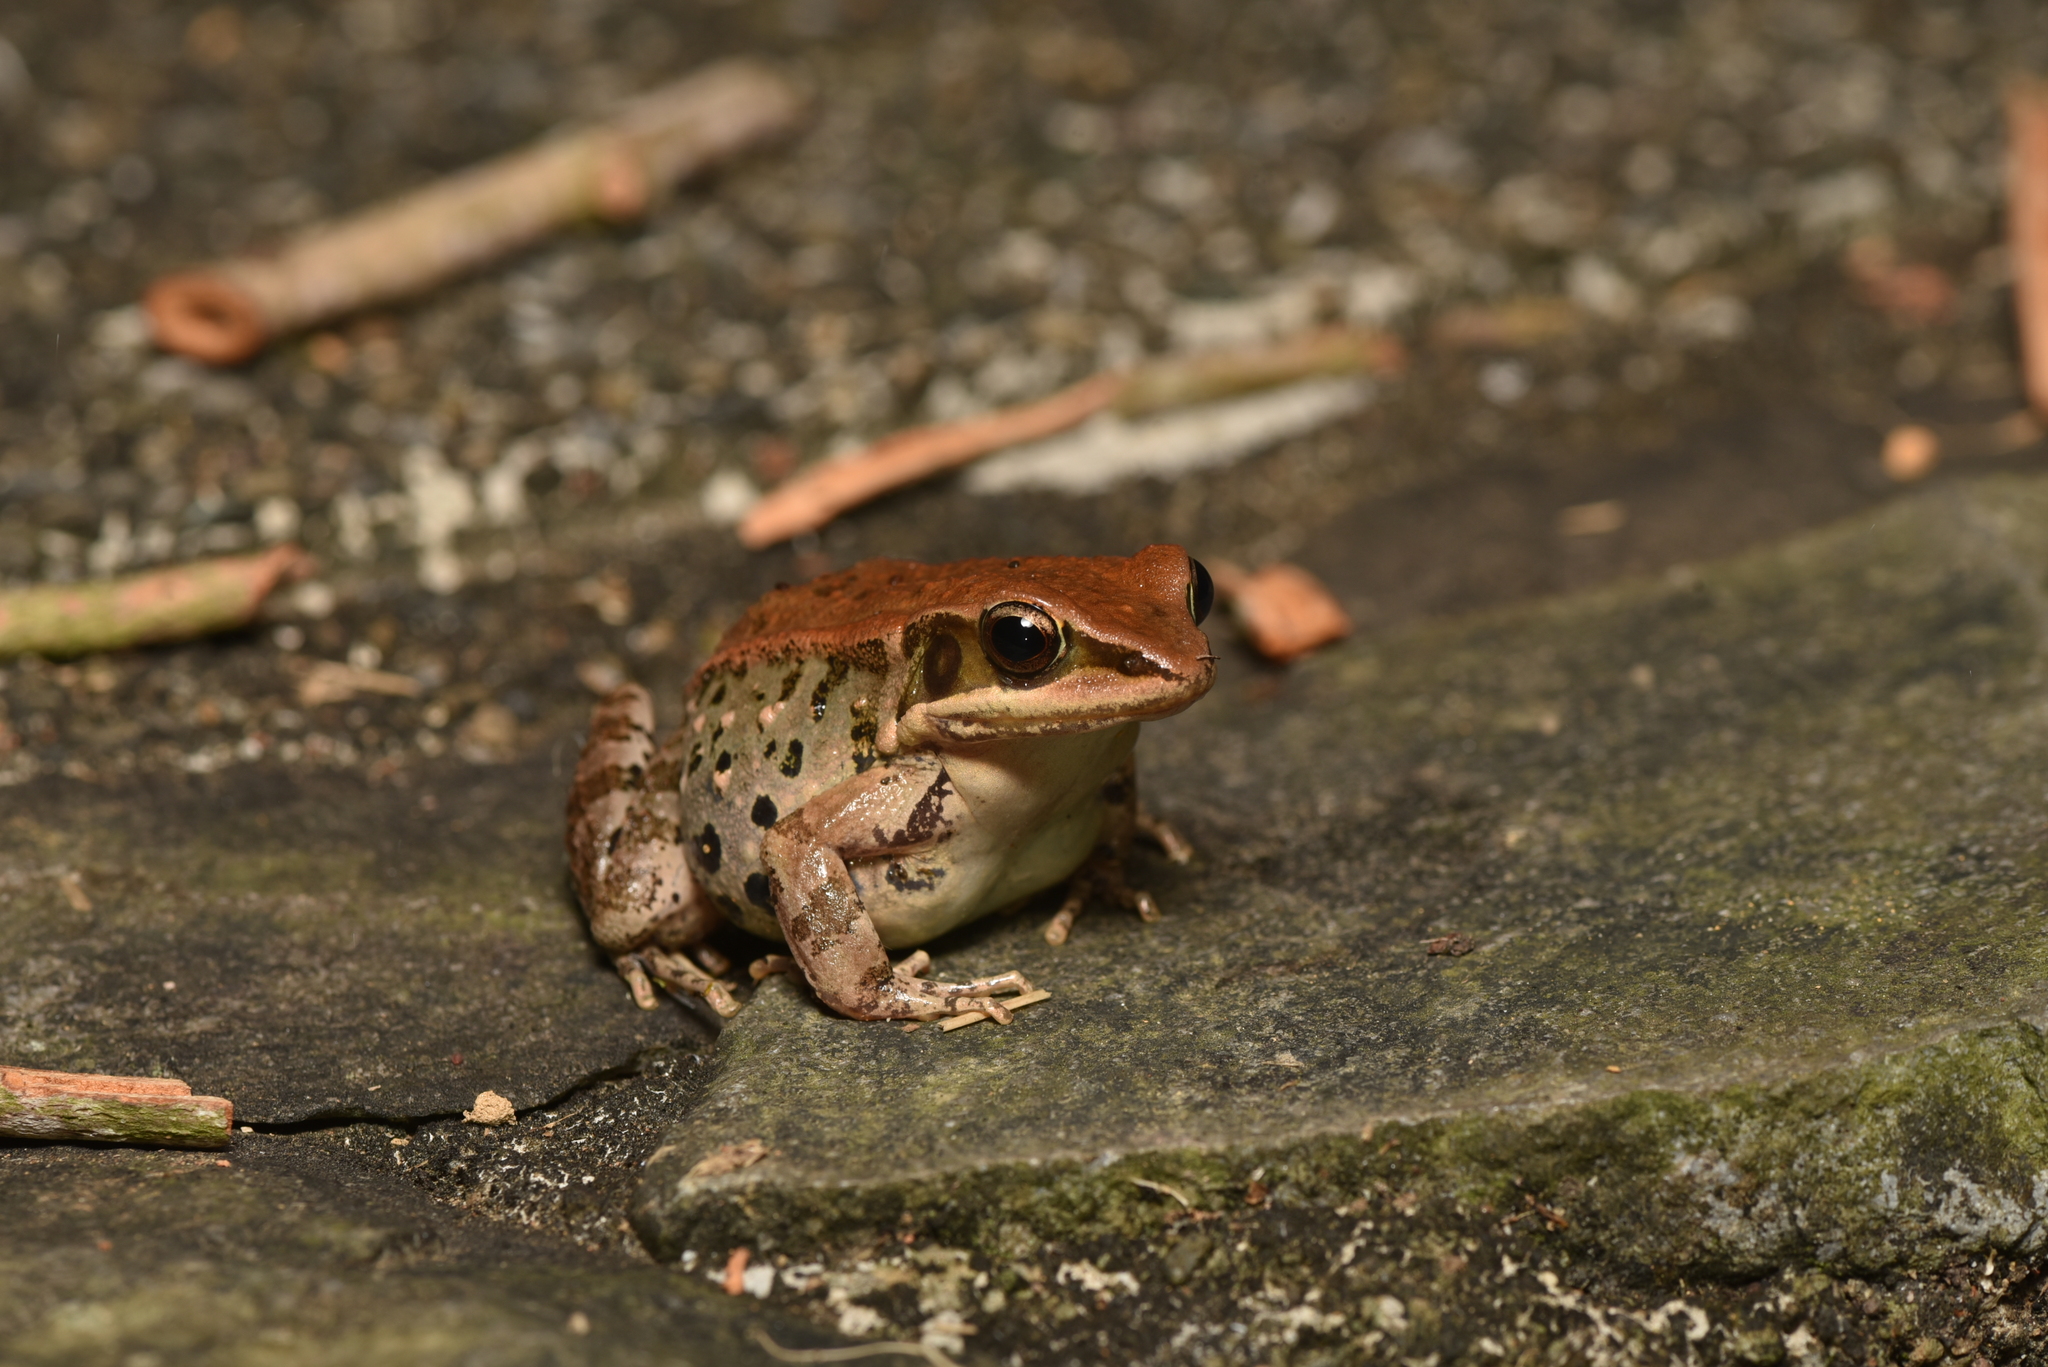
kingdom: Animalia
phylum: Chordata
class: Amphibia
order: Anura
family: Ranidae
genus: Hylarana
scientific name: Hylarana latouchii
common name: Broad-folded frog
